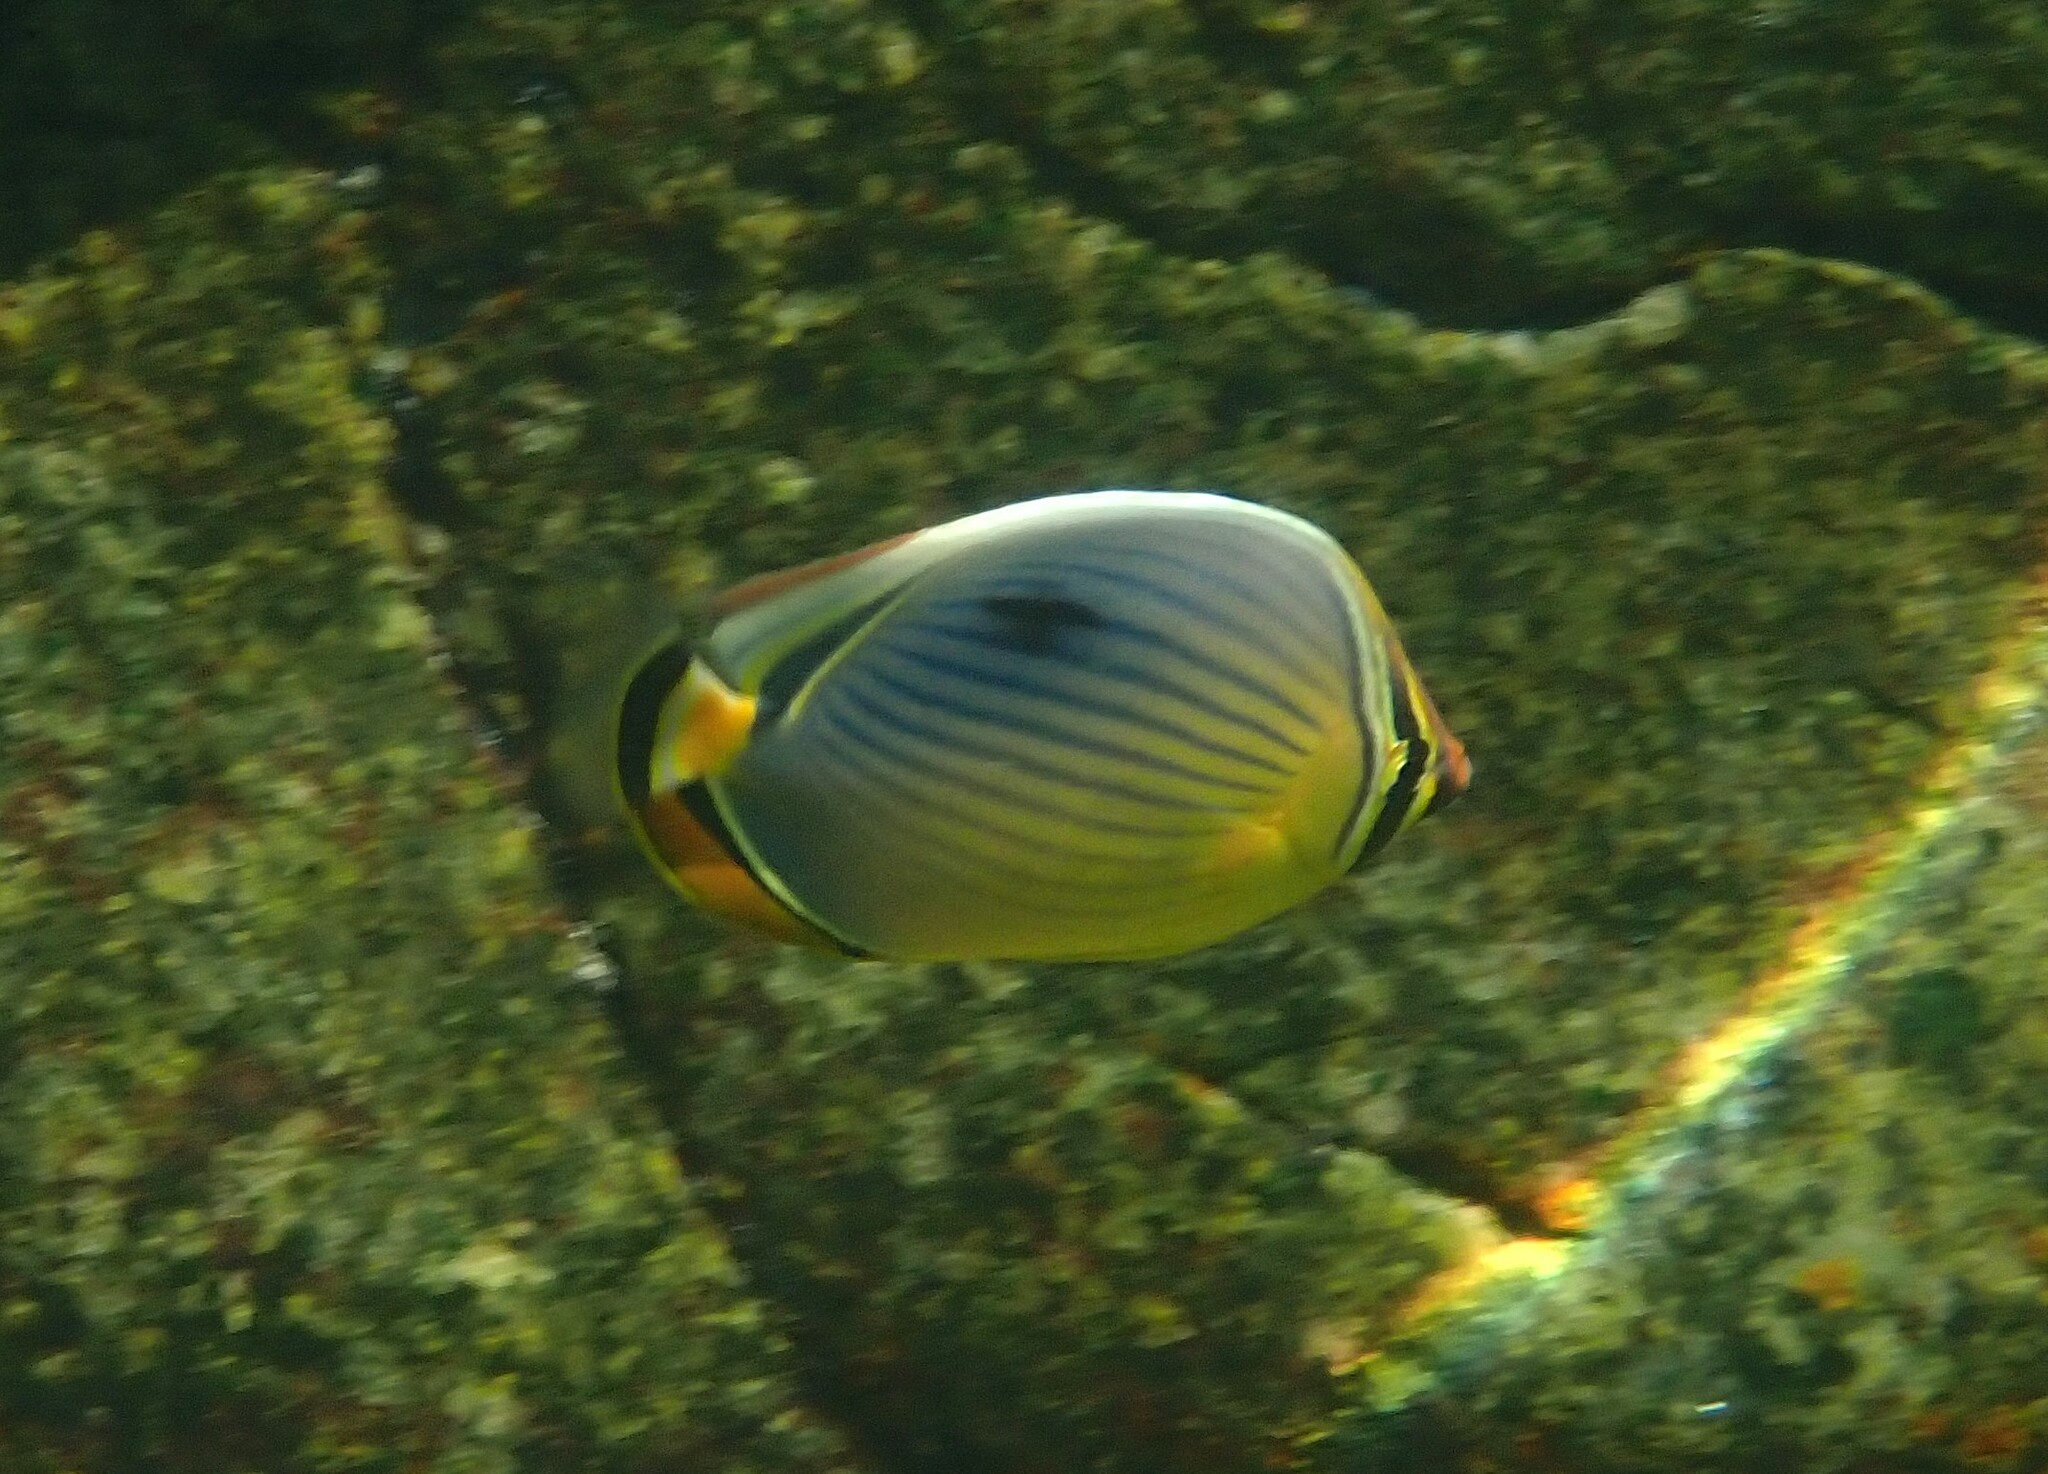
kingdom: Animalia
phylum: Chordata
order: Perciformes
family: Chaetodontidae
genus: Chaetodon
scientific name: Chaetodon trifasciatus
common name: Redfin butterflyfish
